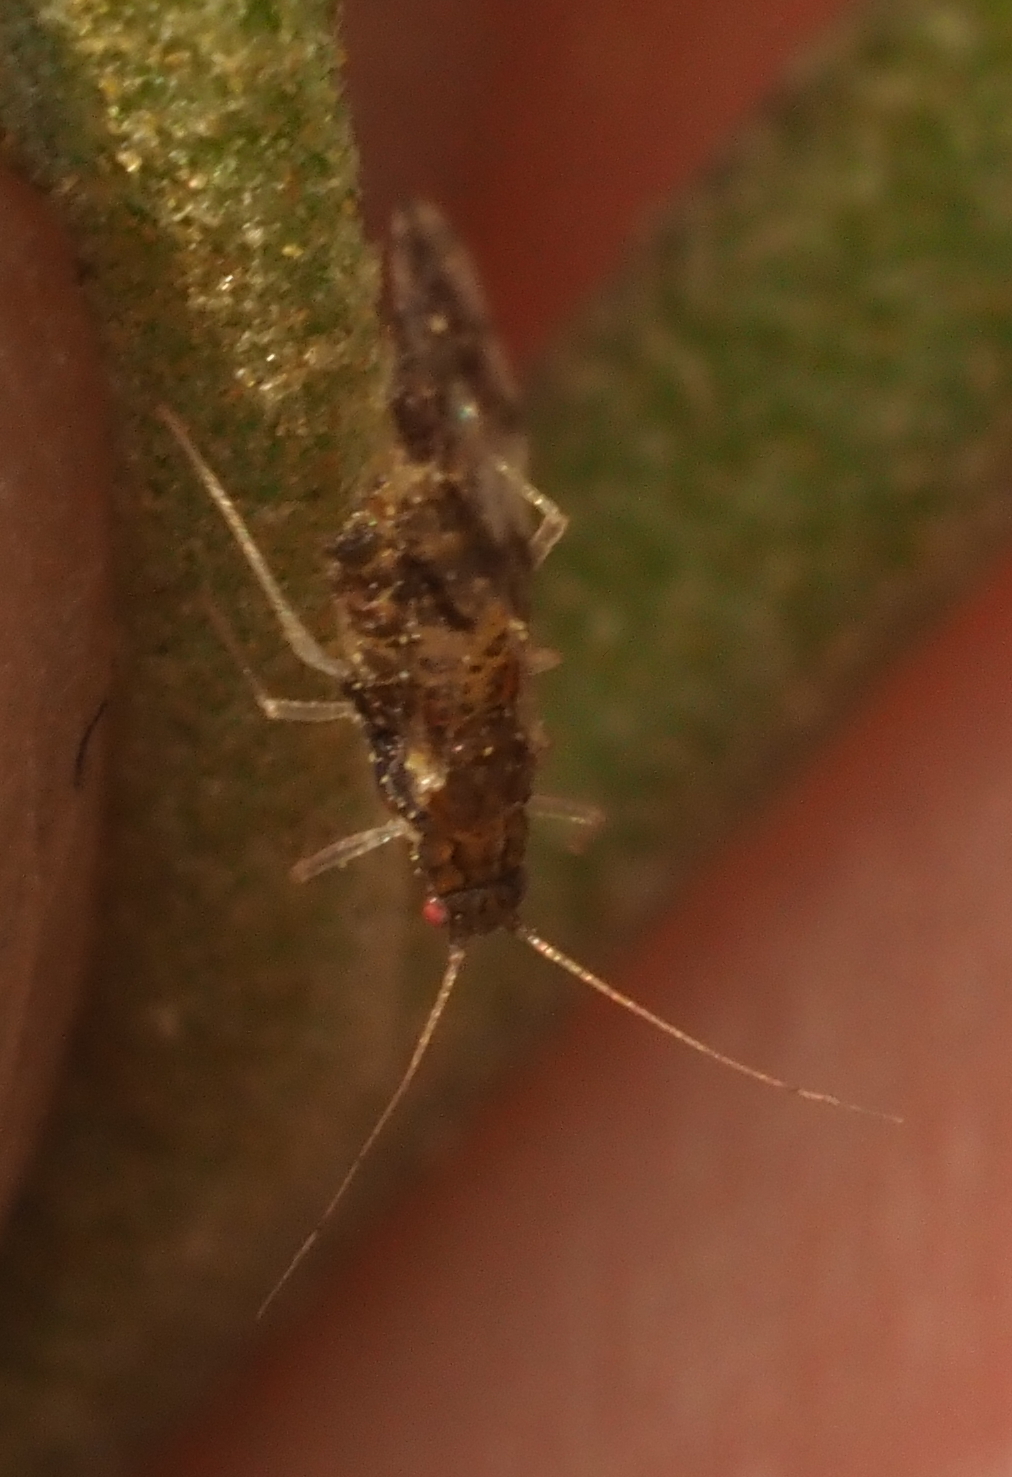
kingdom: Animalia
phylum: Arthropoda
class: Insecta
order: Hemiptera
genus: Neomyzocallis
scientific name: Neomyzocallis
